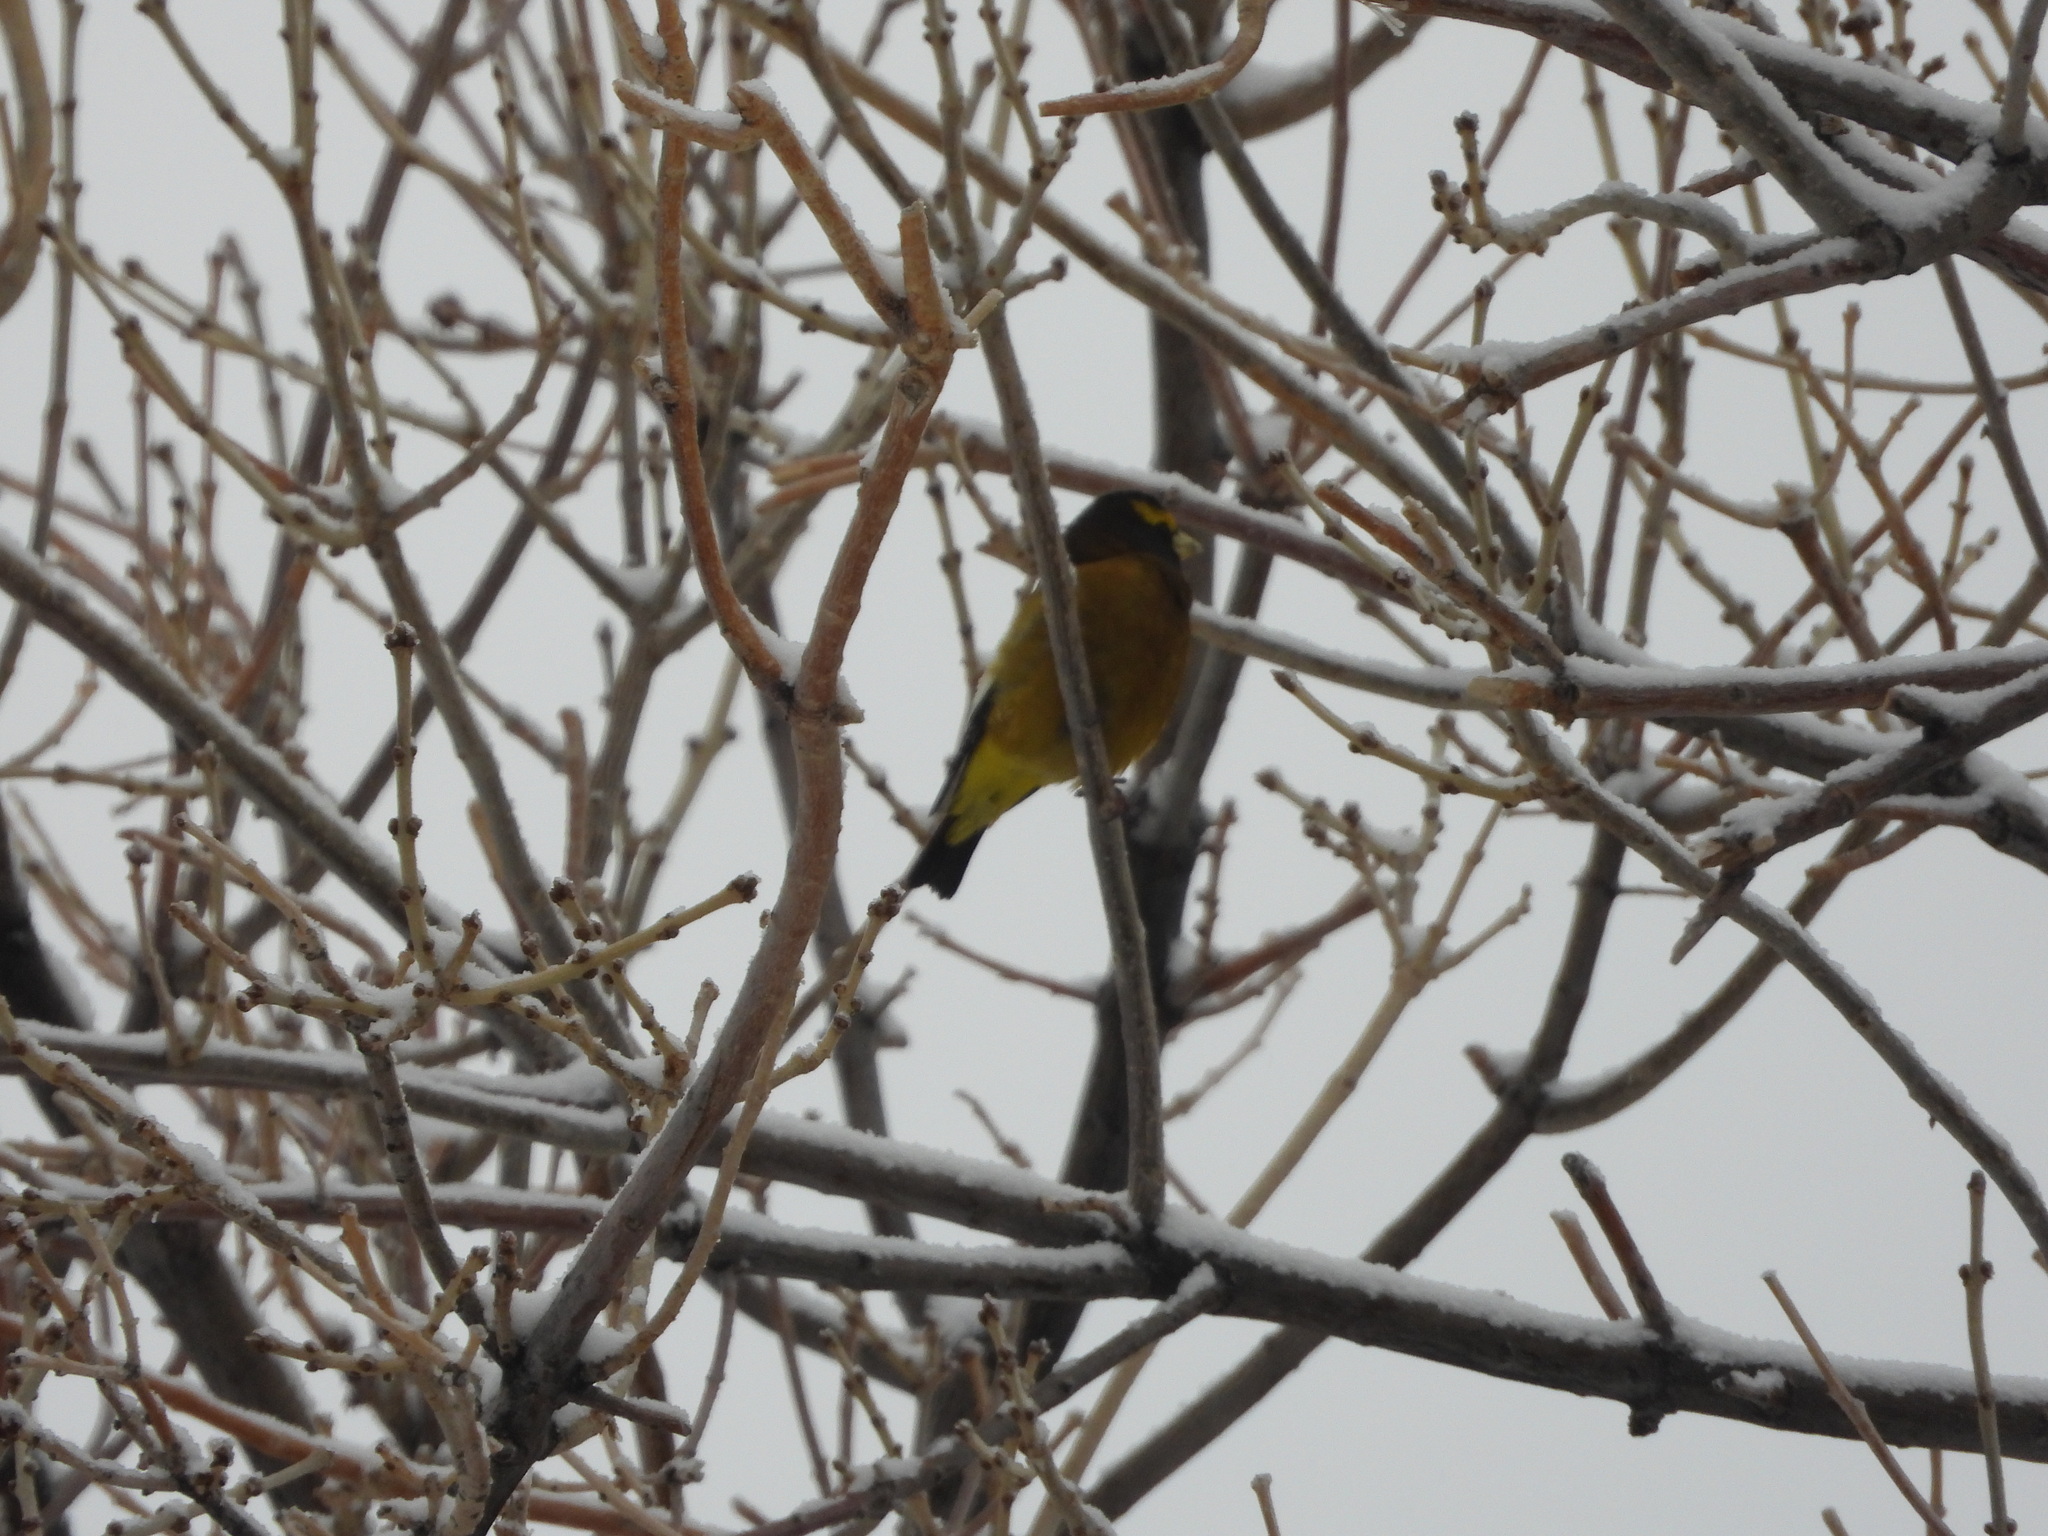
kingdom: Animalia
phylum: Chordata
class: Aves
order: Passeriformes
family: Fringillidae
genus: Hesperiphona
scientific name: Hesperiphona vespertina
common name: Evening grosbeak
